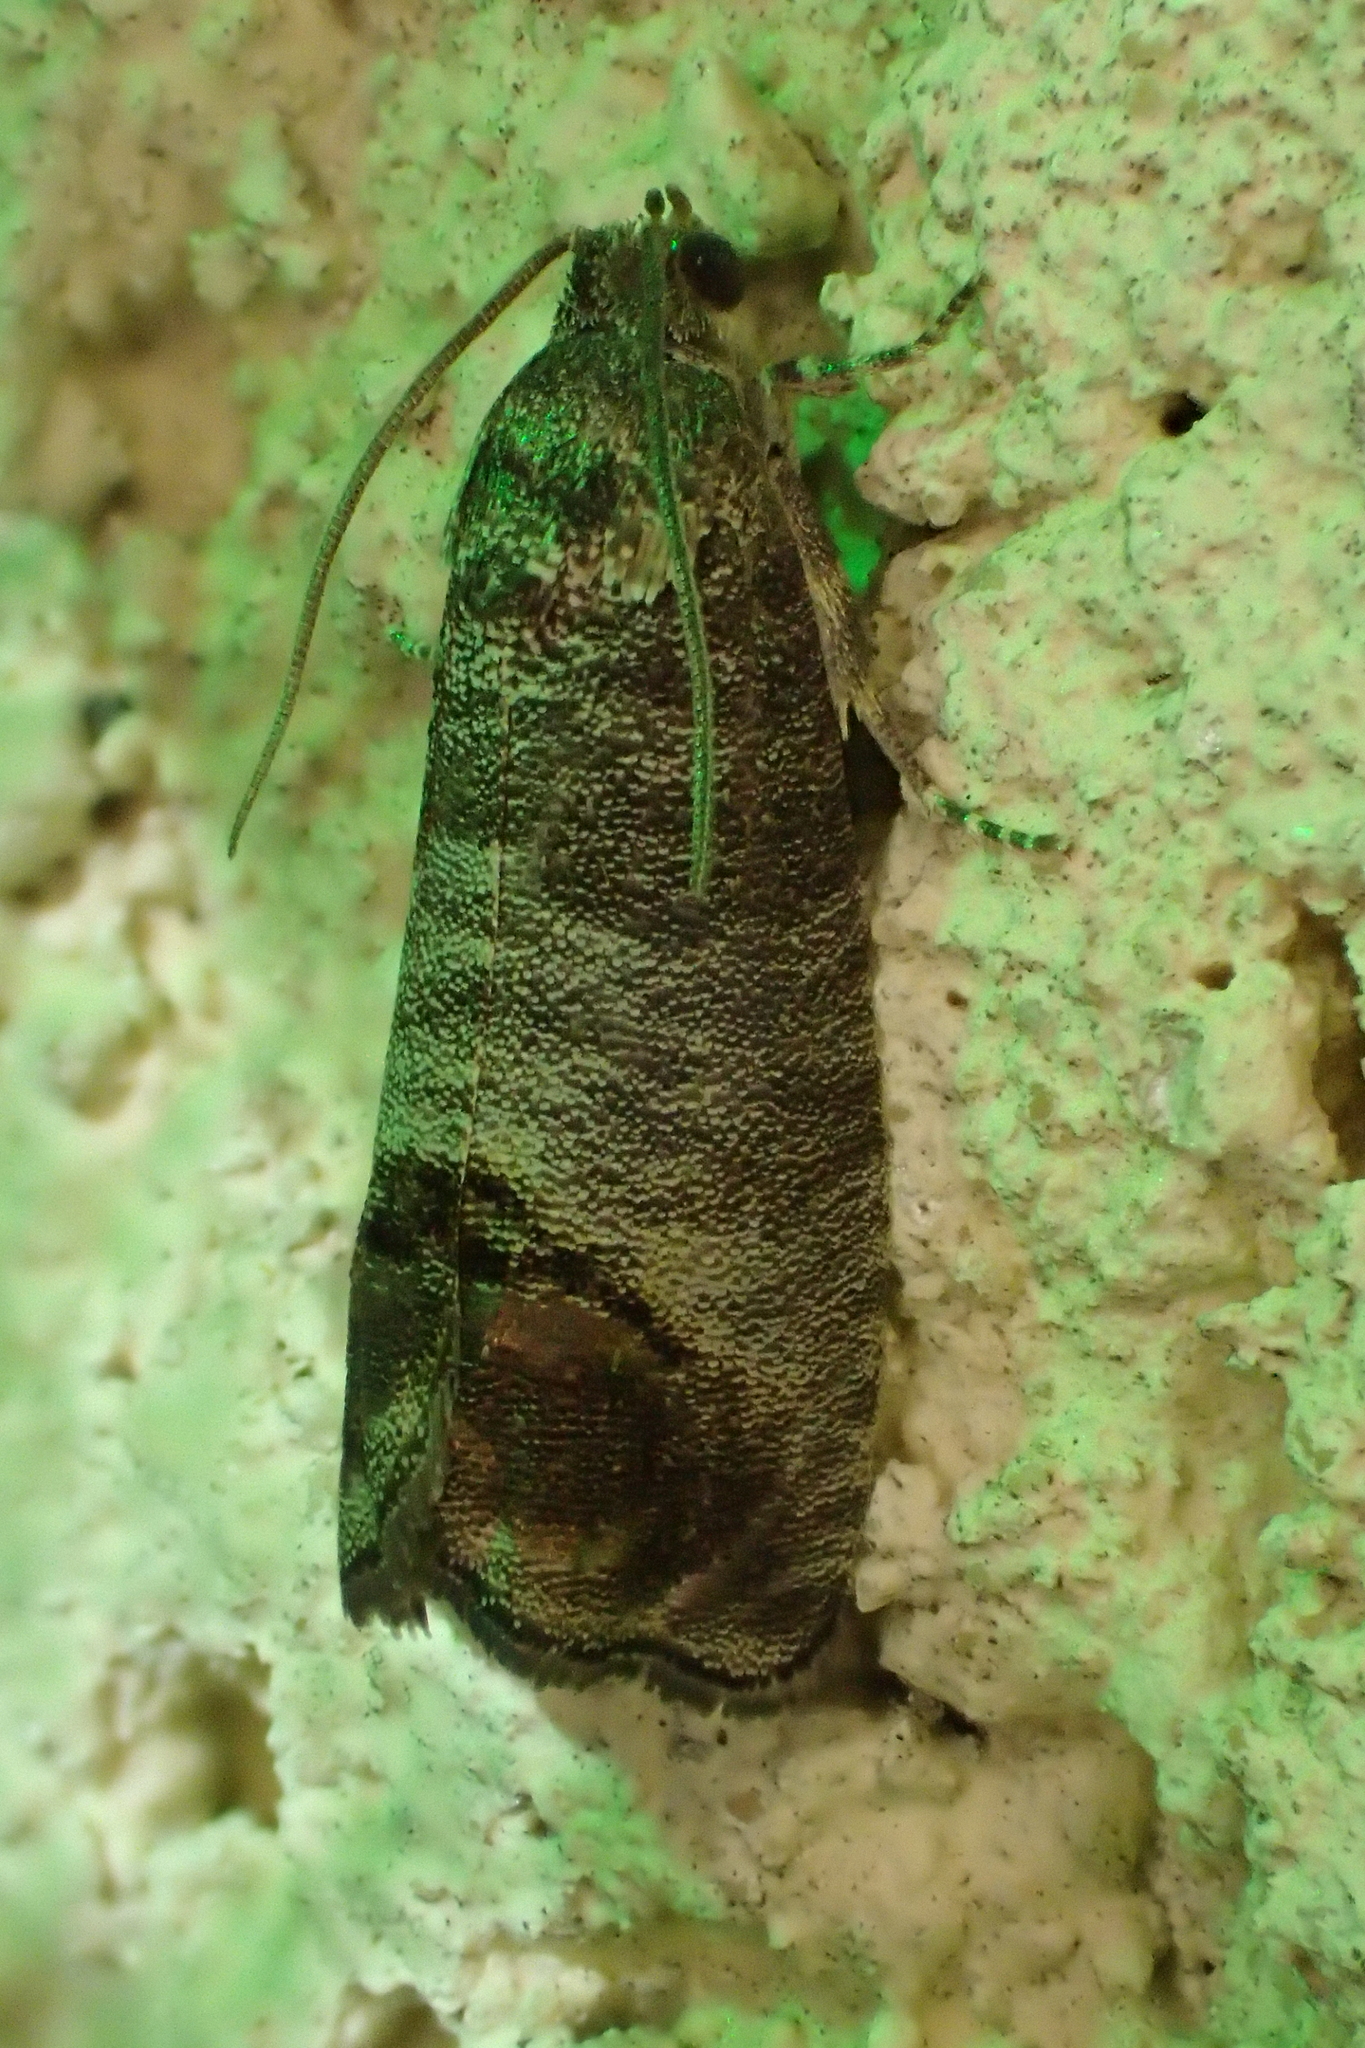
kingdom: Animalia
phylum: Arthropoda
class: Insecta
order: Lepidoptera
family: Tortricidae
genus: Cydia
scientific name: Cydia pomonella
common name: Codling moth
